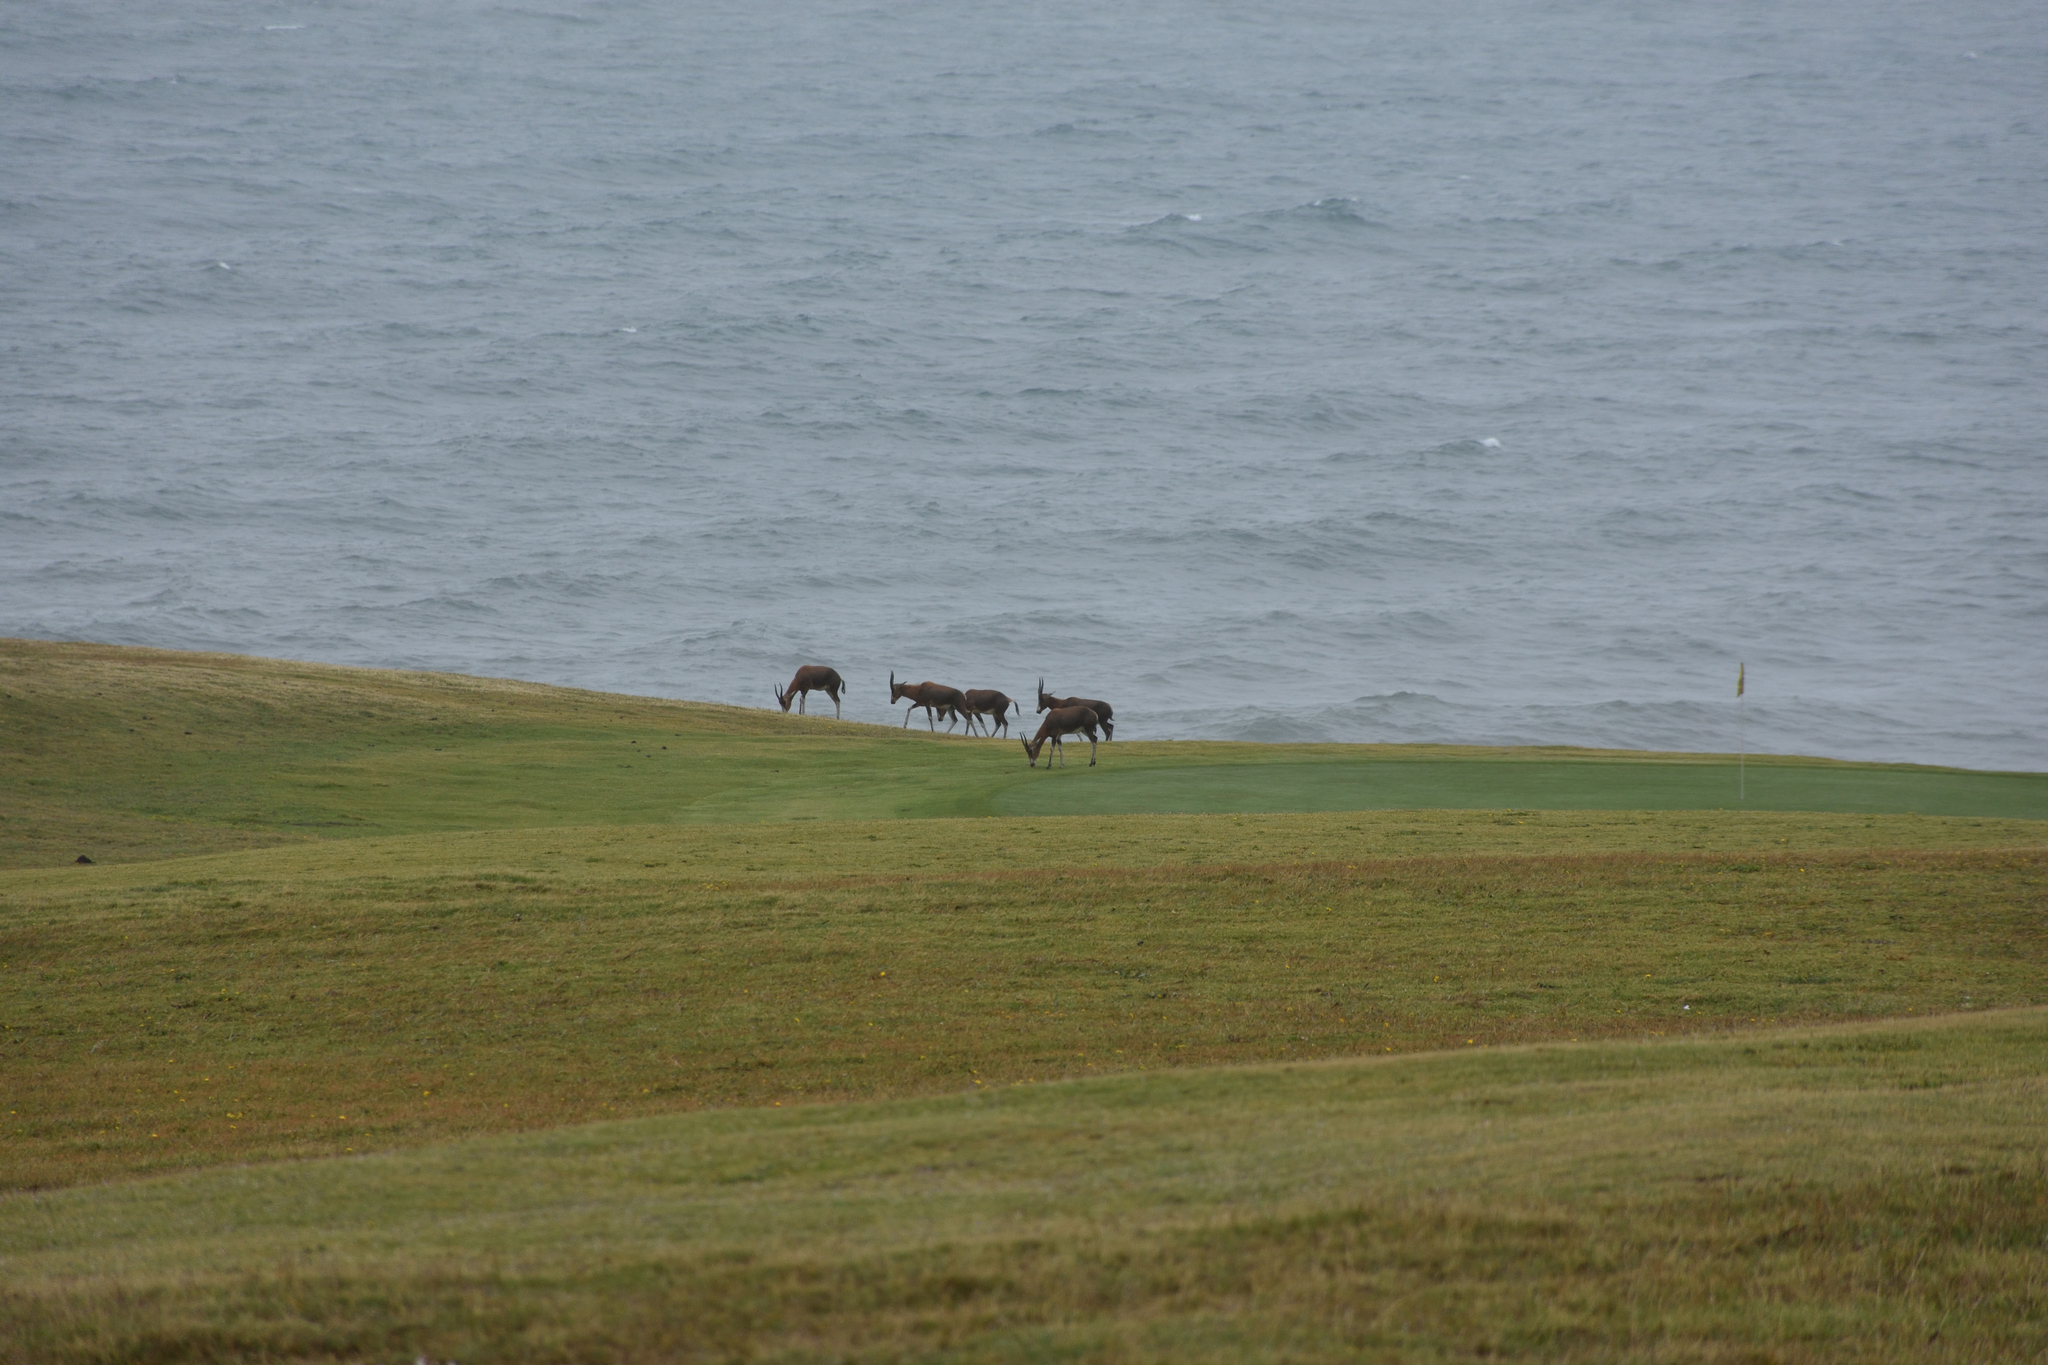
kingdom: Animalia
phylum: Chordata
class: Mammalia
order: Artiodactyla
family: Bovidae
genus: Damaliscus
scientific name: Damaliscus pygargus
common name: Bontebok
